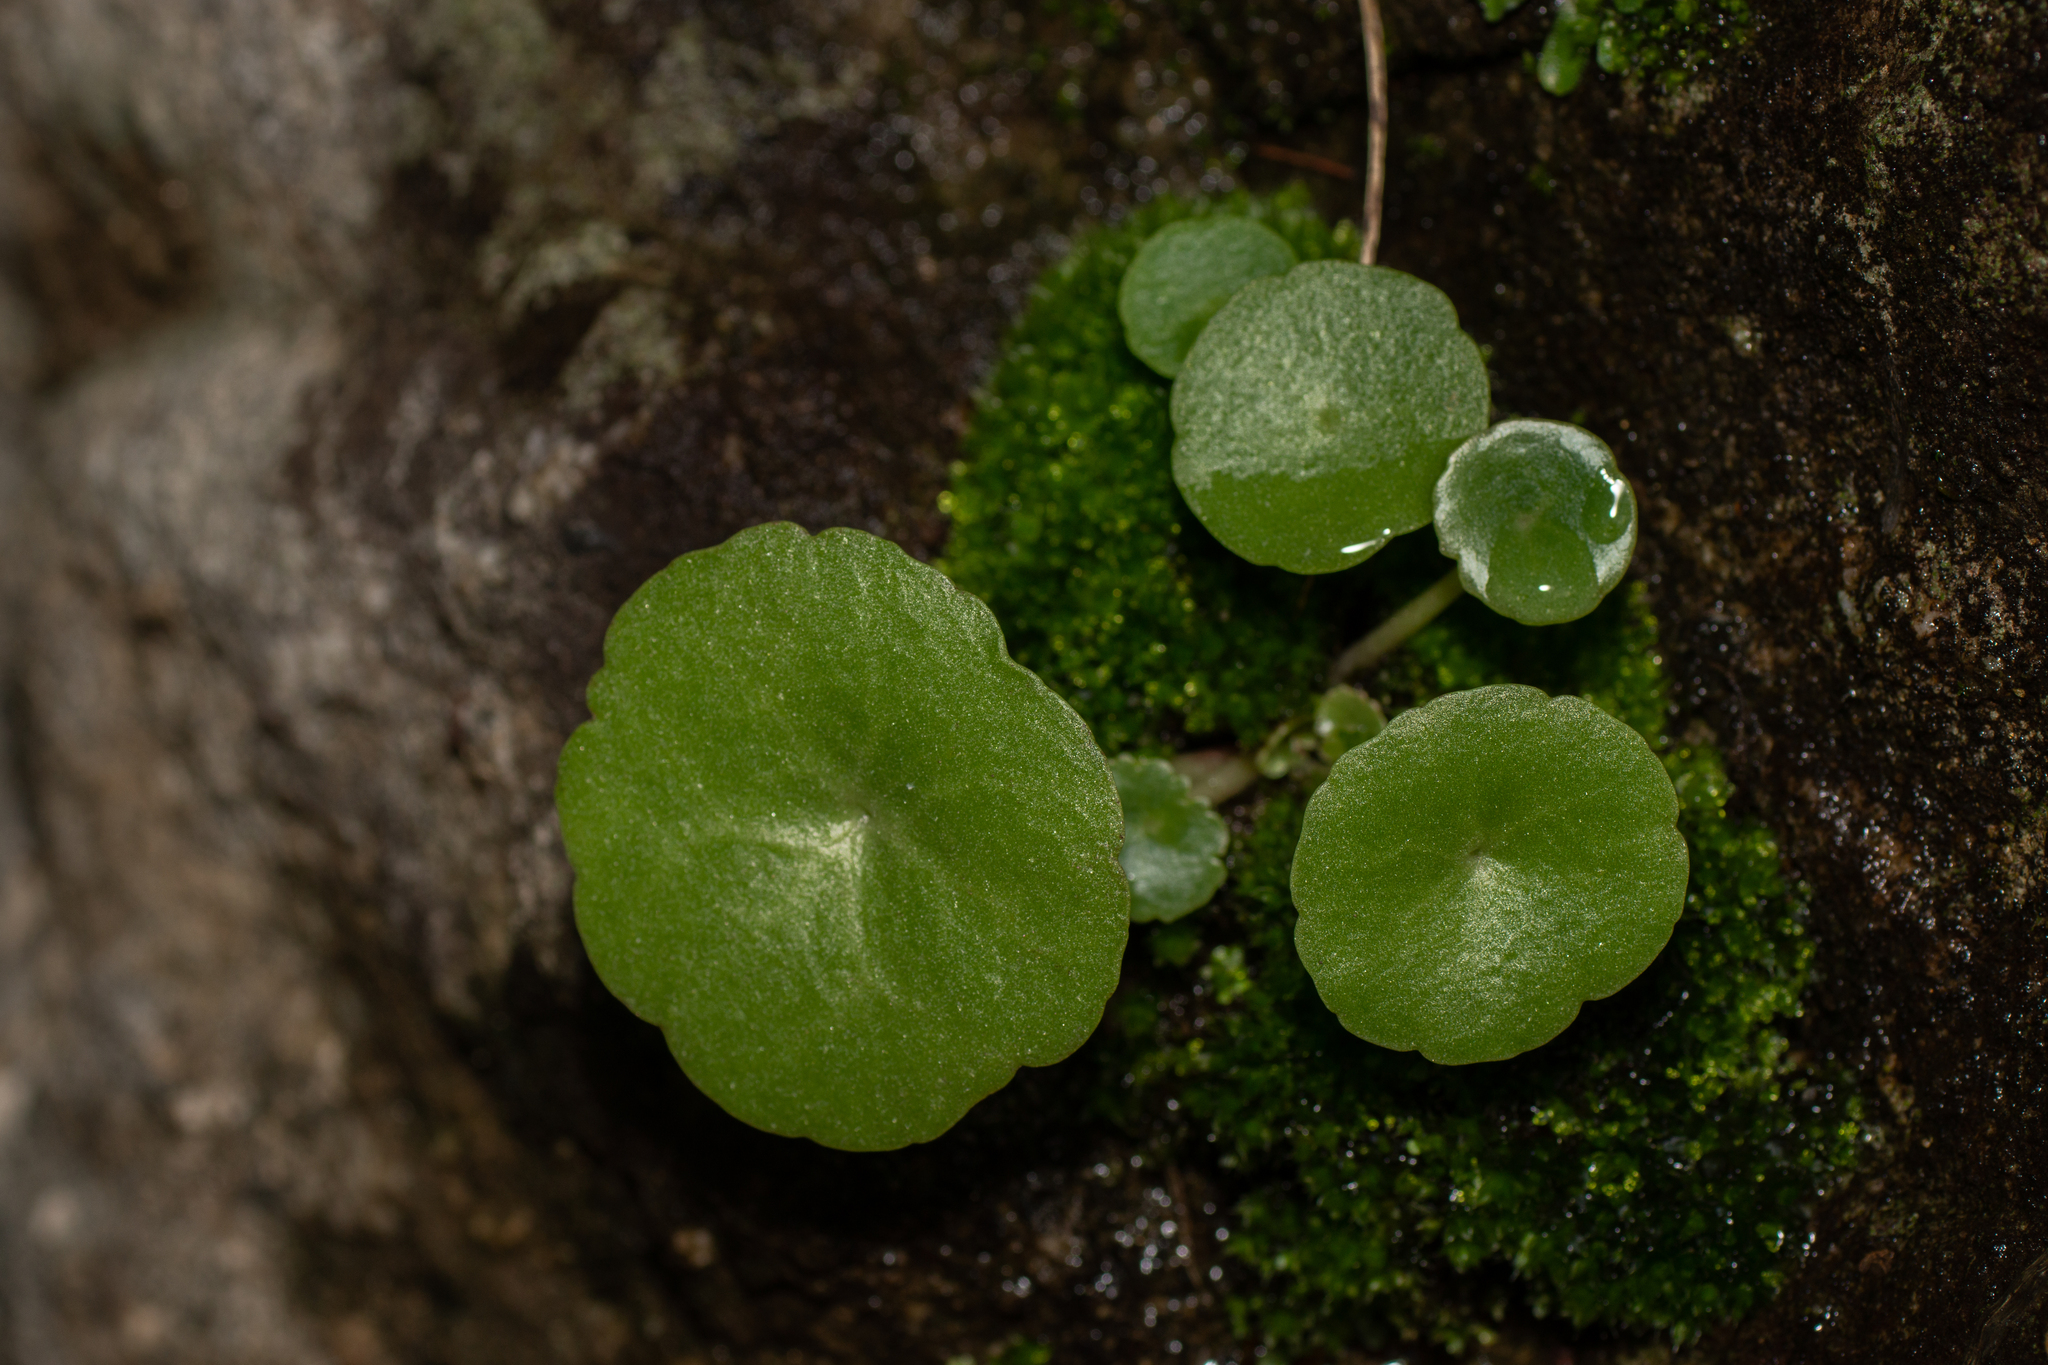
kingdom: Plantae
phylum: Tracheophyta
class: Magnoliopsida
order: Saxifragales
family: Crassulaceae
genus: Umbilicus
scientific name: Umbilicus rupestris
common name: Navelwort
